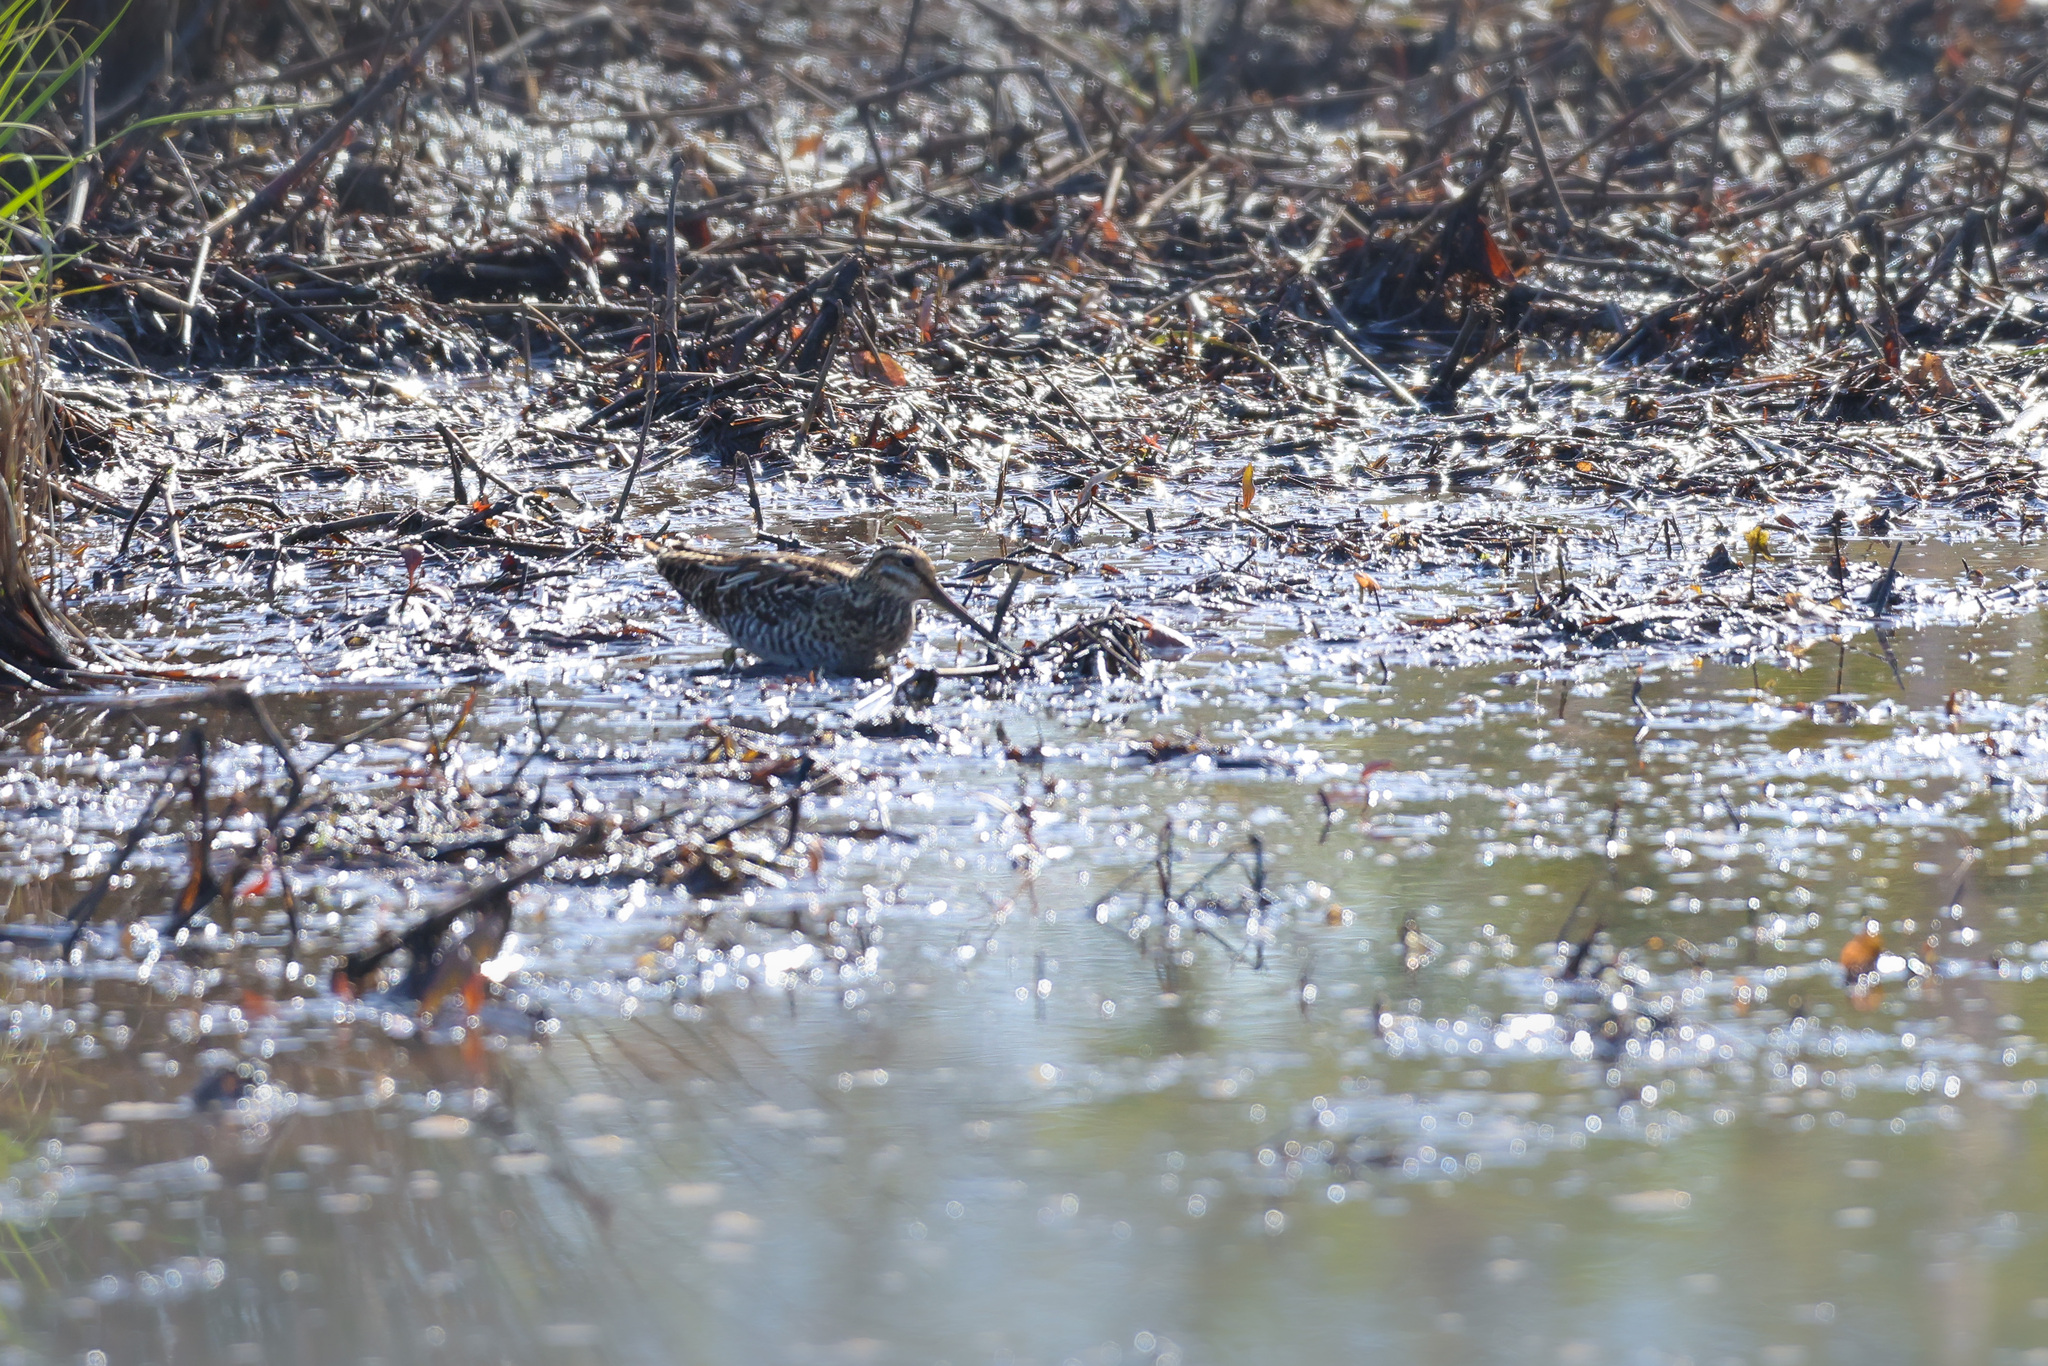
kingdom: Animalia
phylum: Chordata
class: Aves
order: Charadriiformes
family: Scolopacidae
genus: Gallinago
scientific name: Gallinago delicata
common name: Wilson's snipe
